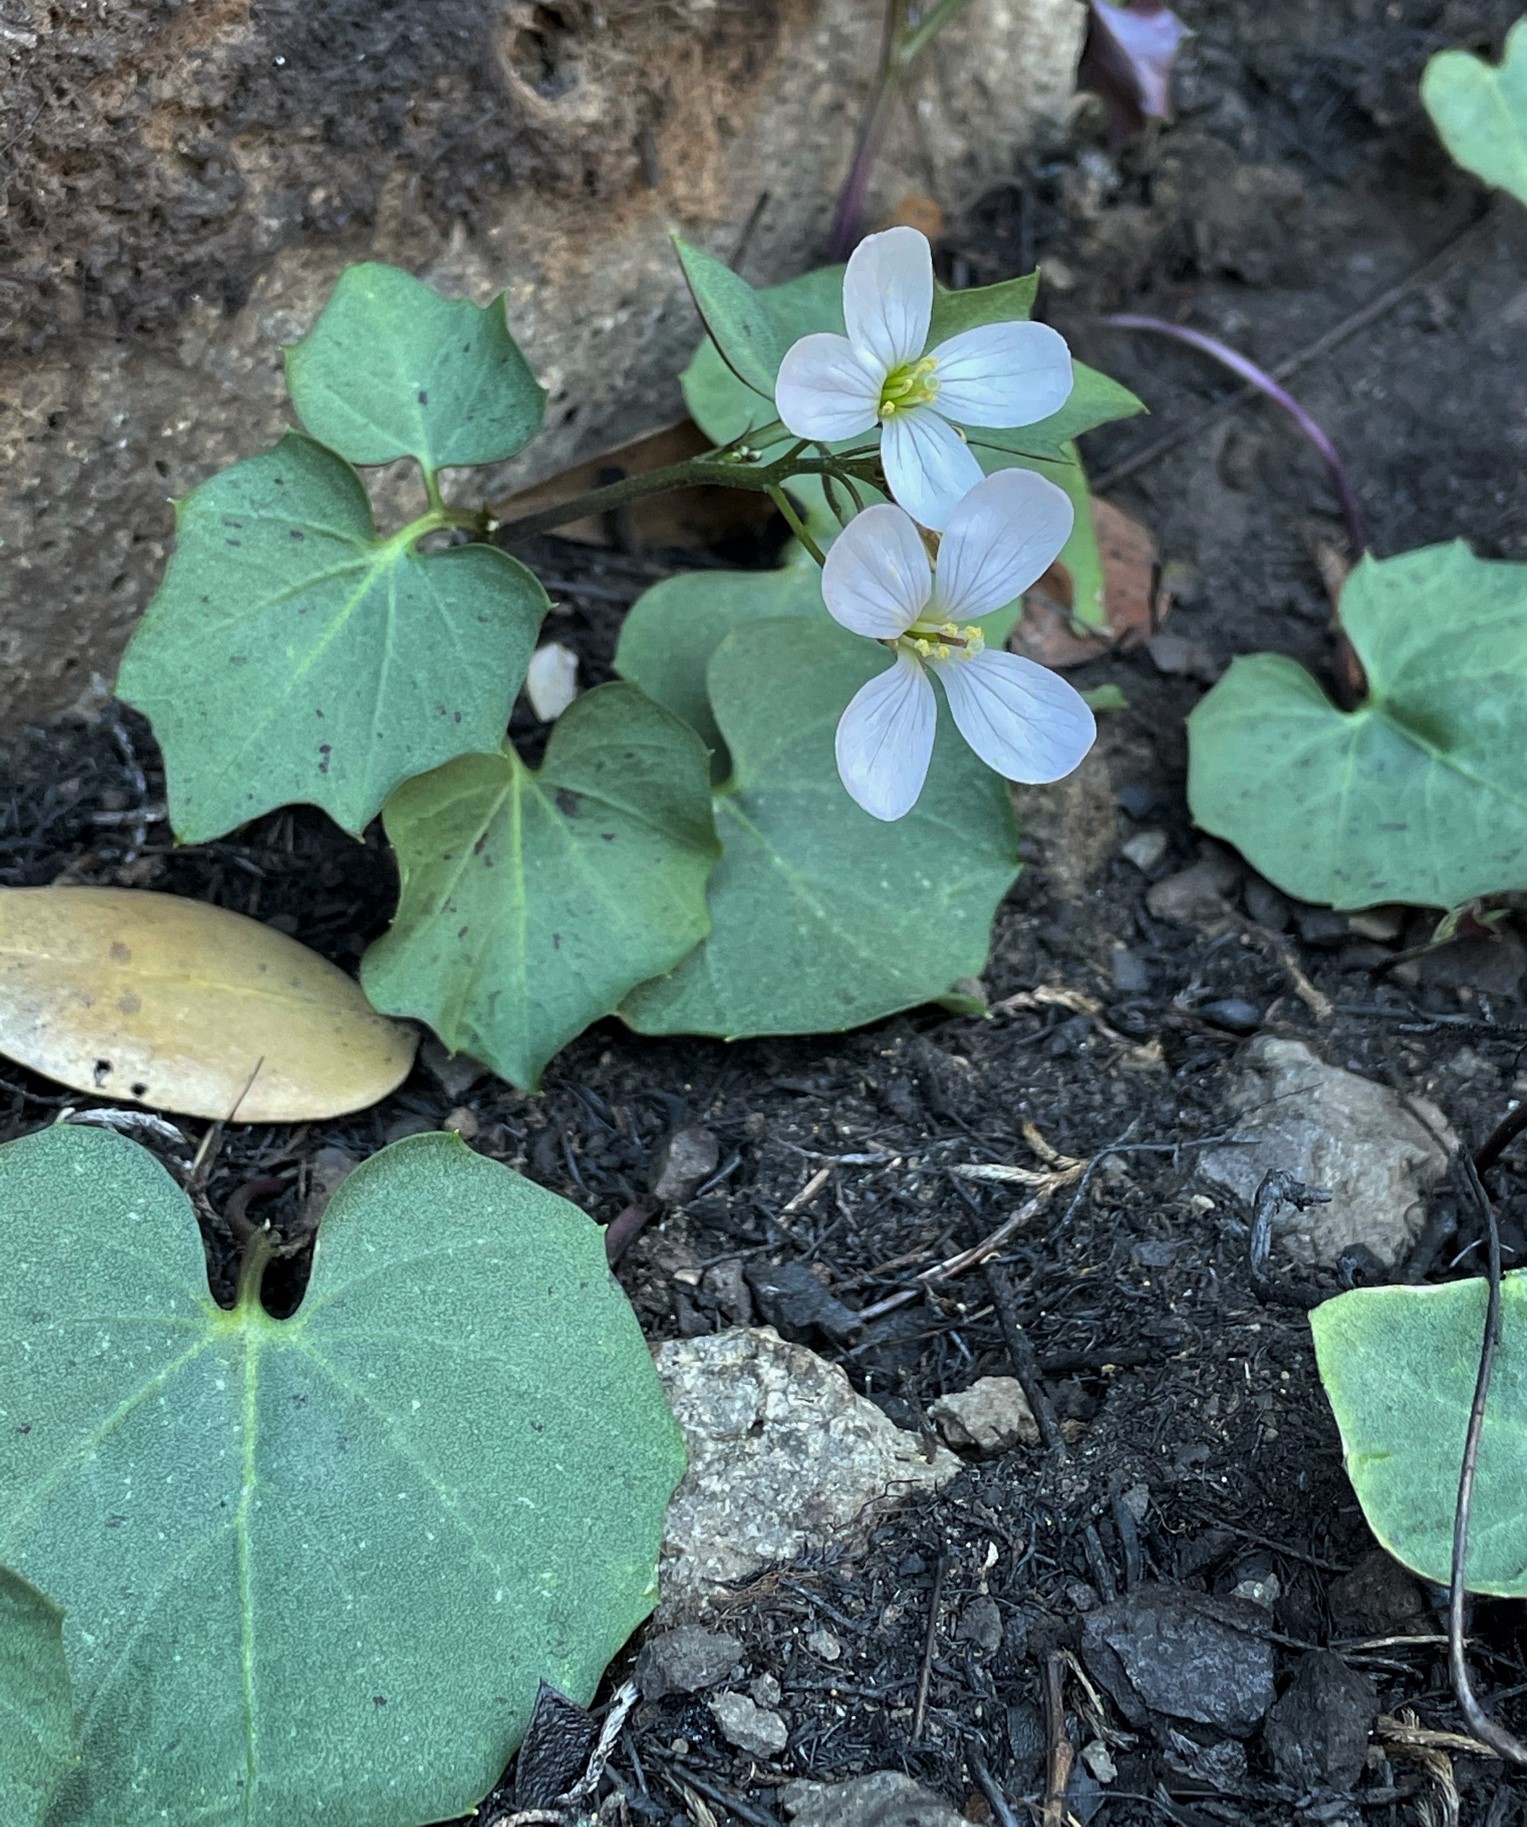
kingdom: Plantae
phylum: Tracheophyta
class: Magnoliopsida
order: Brassicales
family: Brassicaceae
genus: Cardamine
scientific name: Cardamine californica
